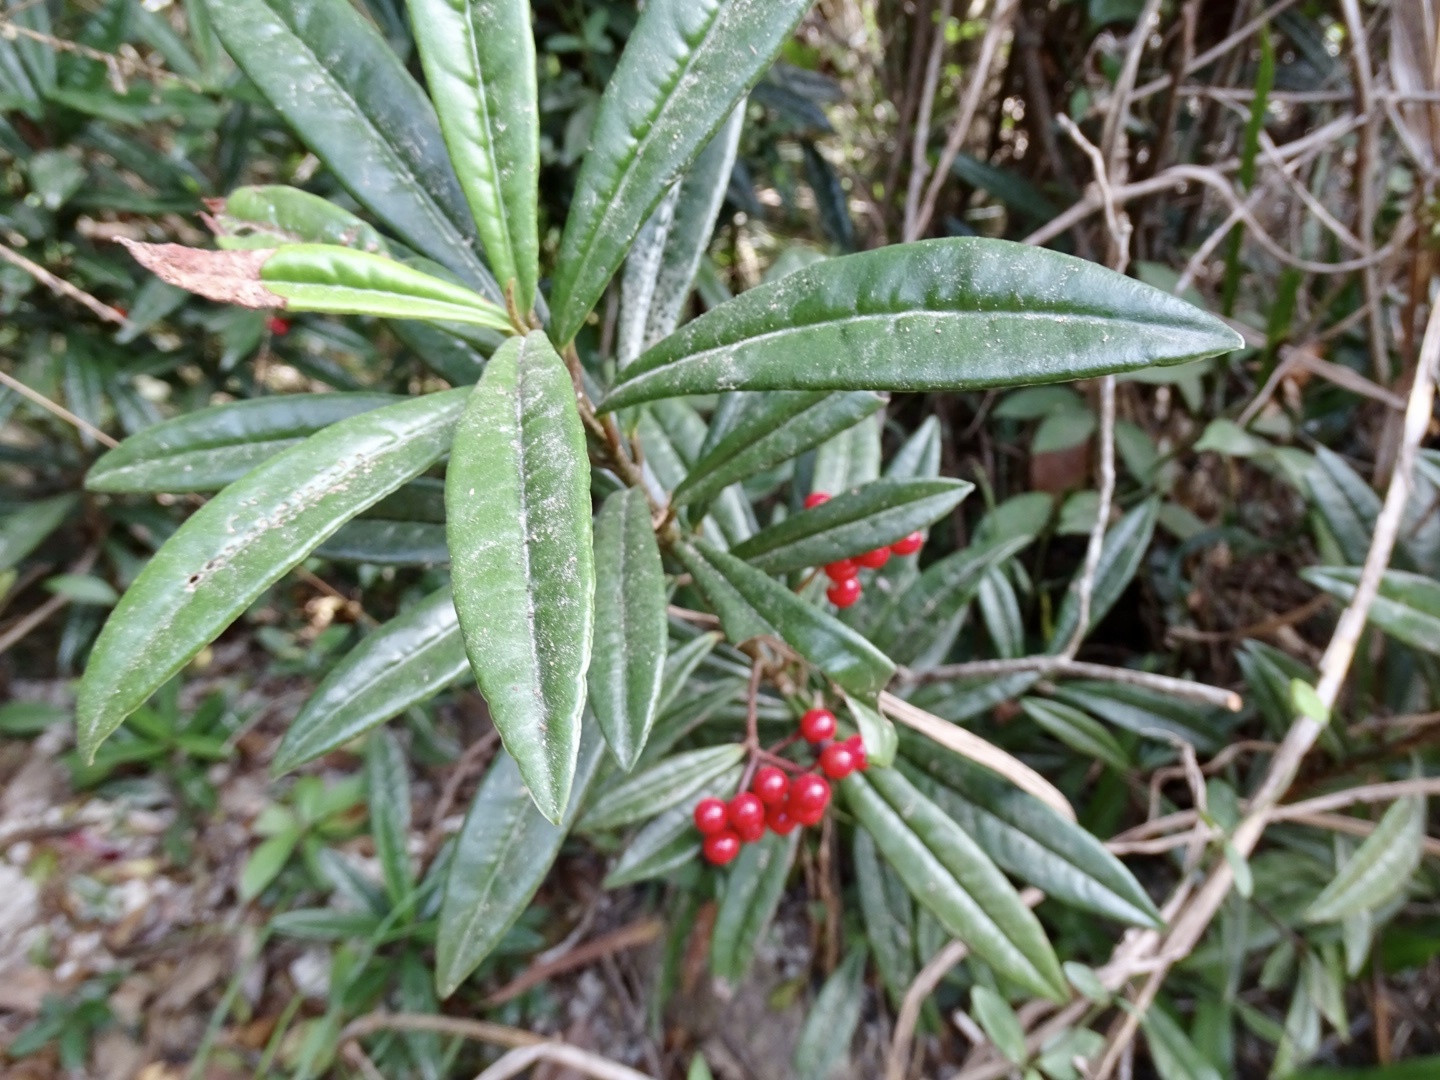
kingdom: Plantae
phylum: Tracheophyta
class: Magnoliopsida
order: Ericales
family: Primulaceae
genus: Ardisia
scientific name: Ardisia lindleyana
